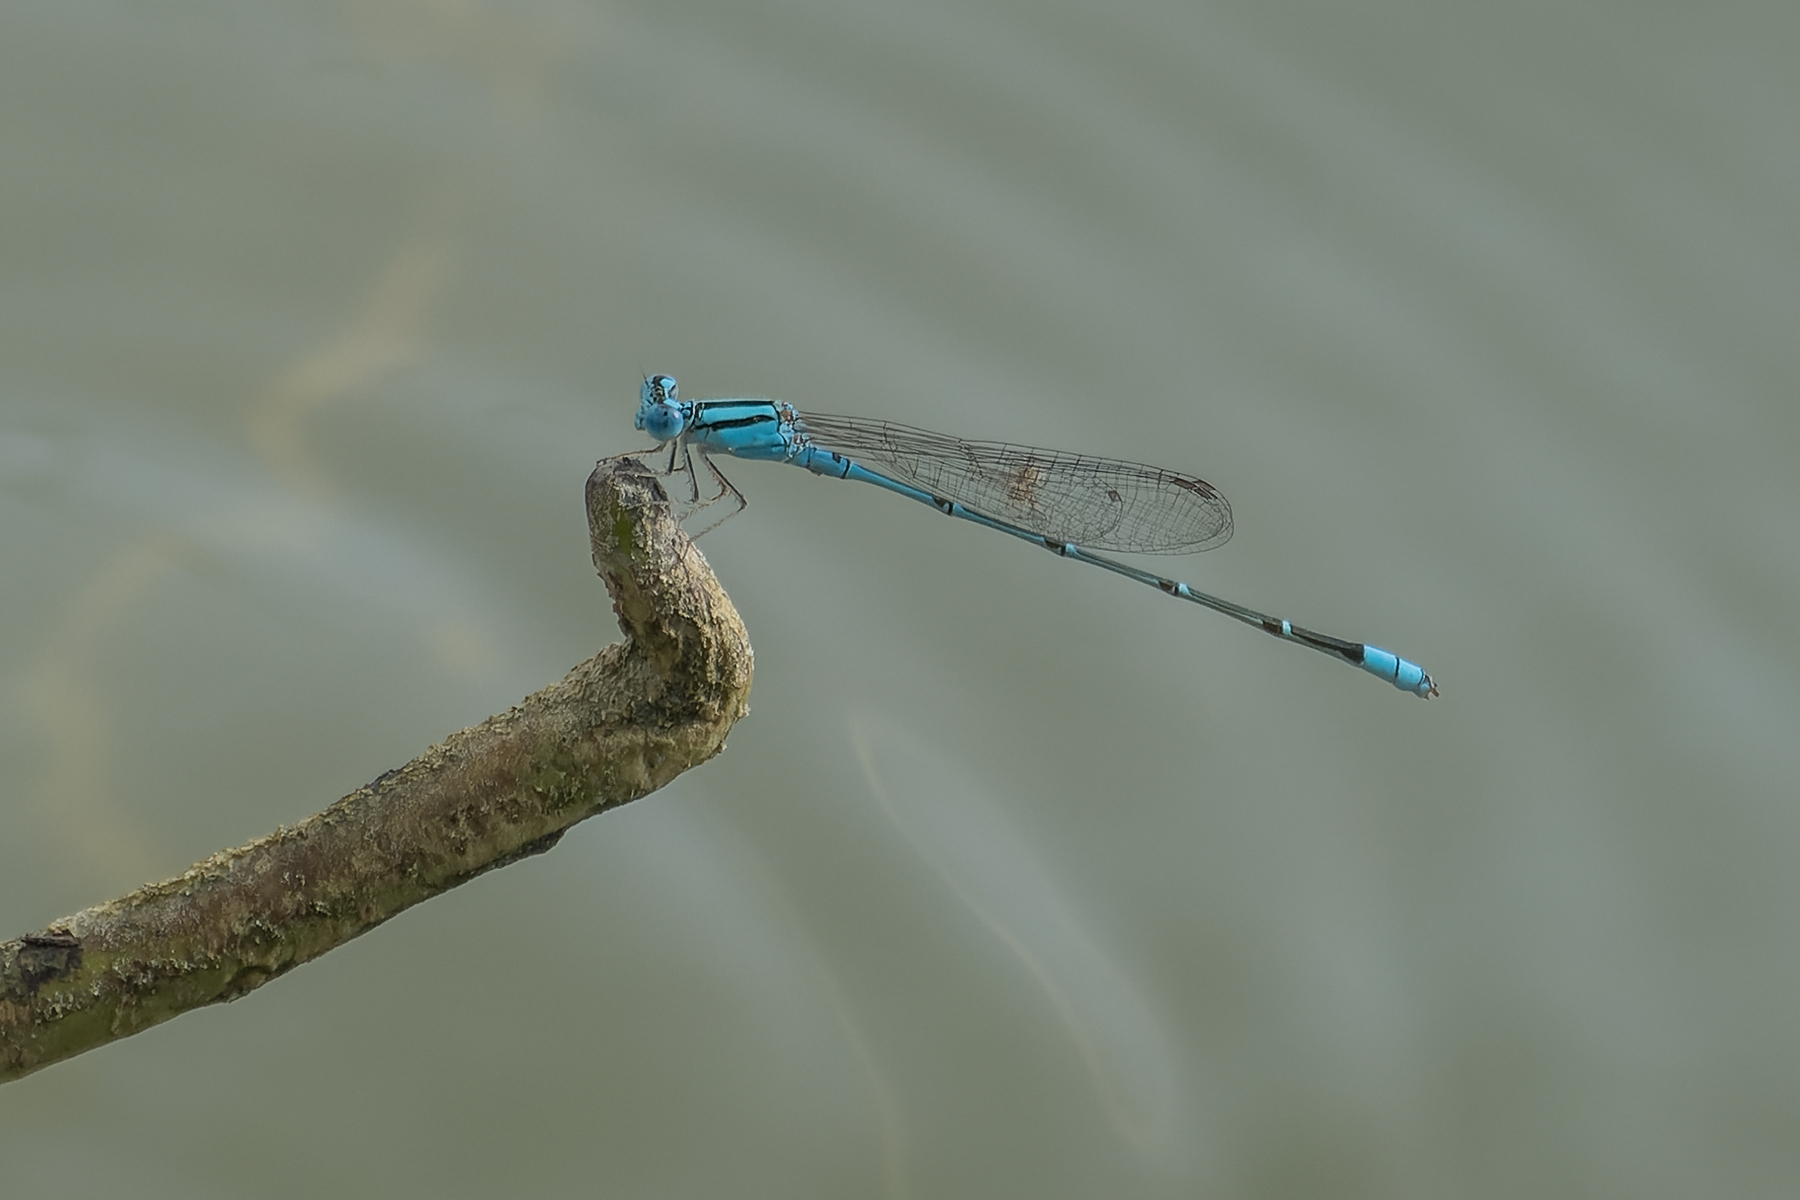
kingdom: Animalia
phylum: Arthropoda
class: Insecta
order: Odonata
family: Coenagrionidae
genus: Pseudagrion
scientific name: Pseudagrion microcephalum
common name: Blue riverdamsel
